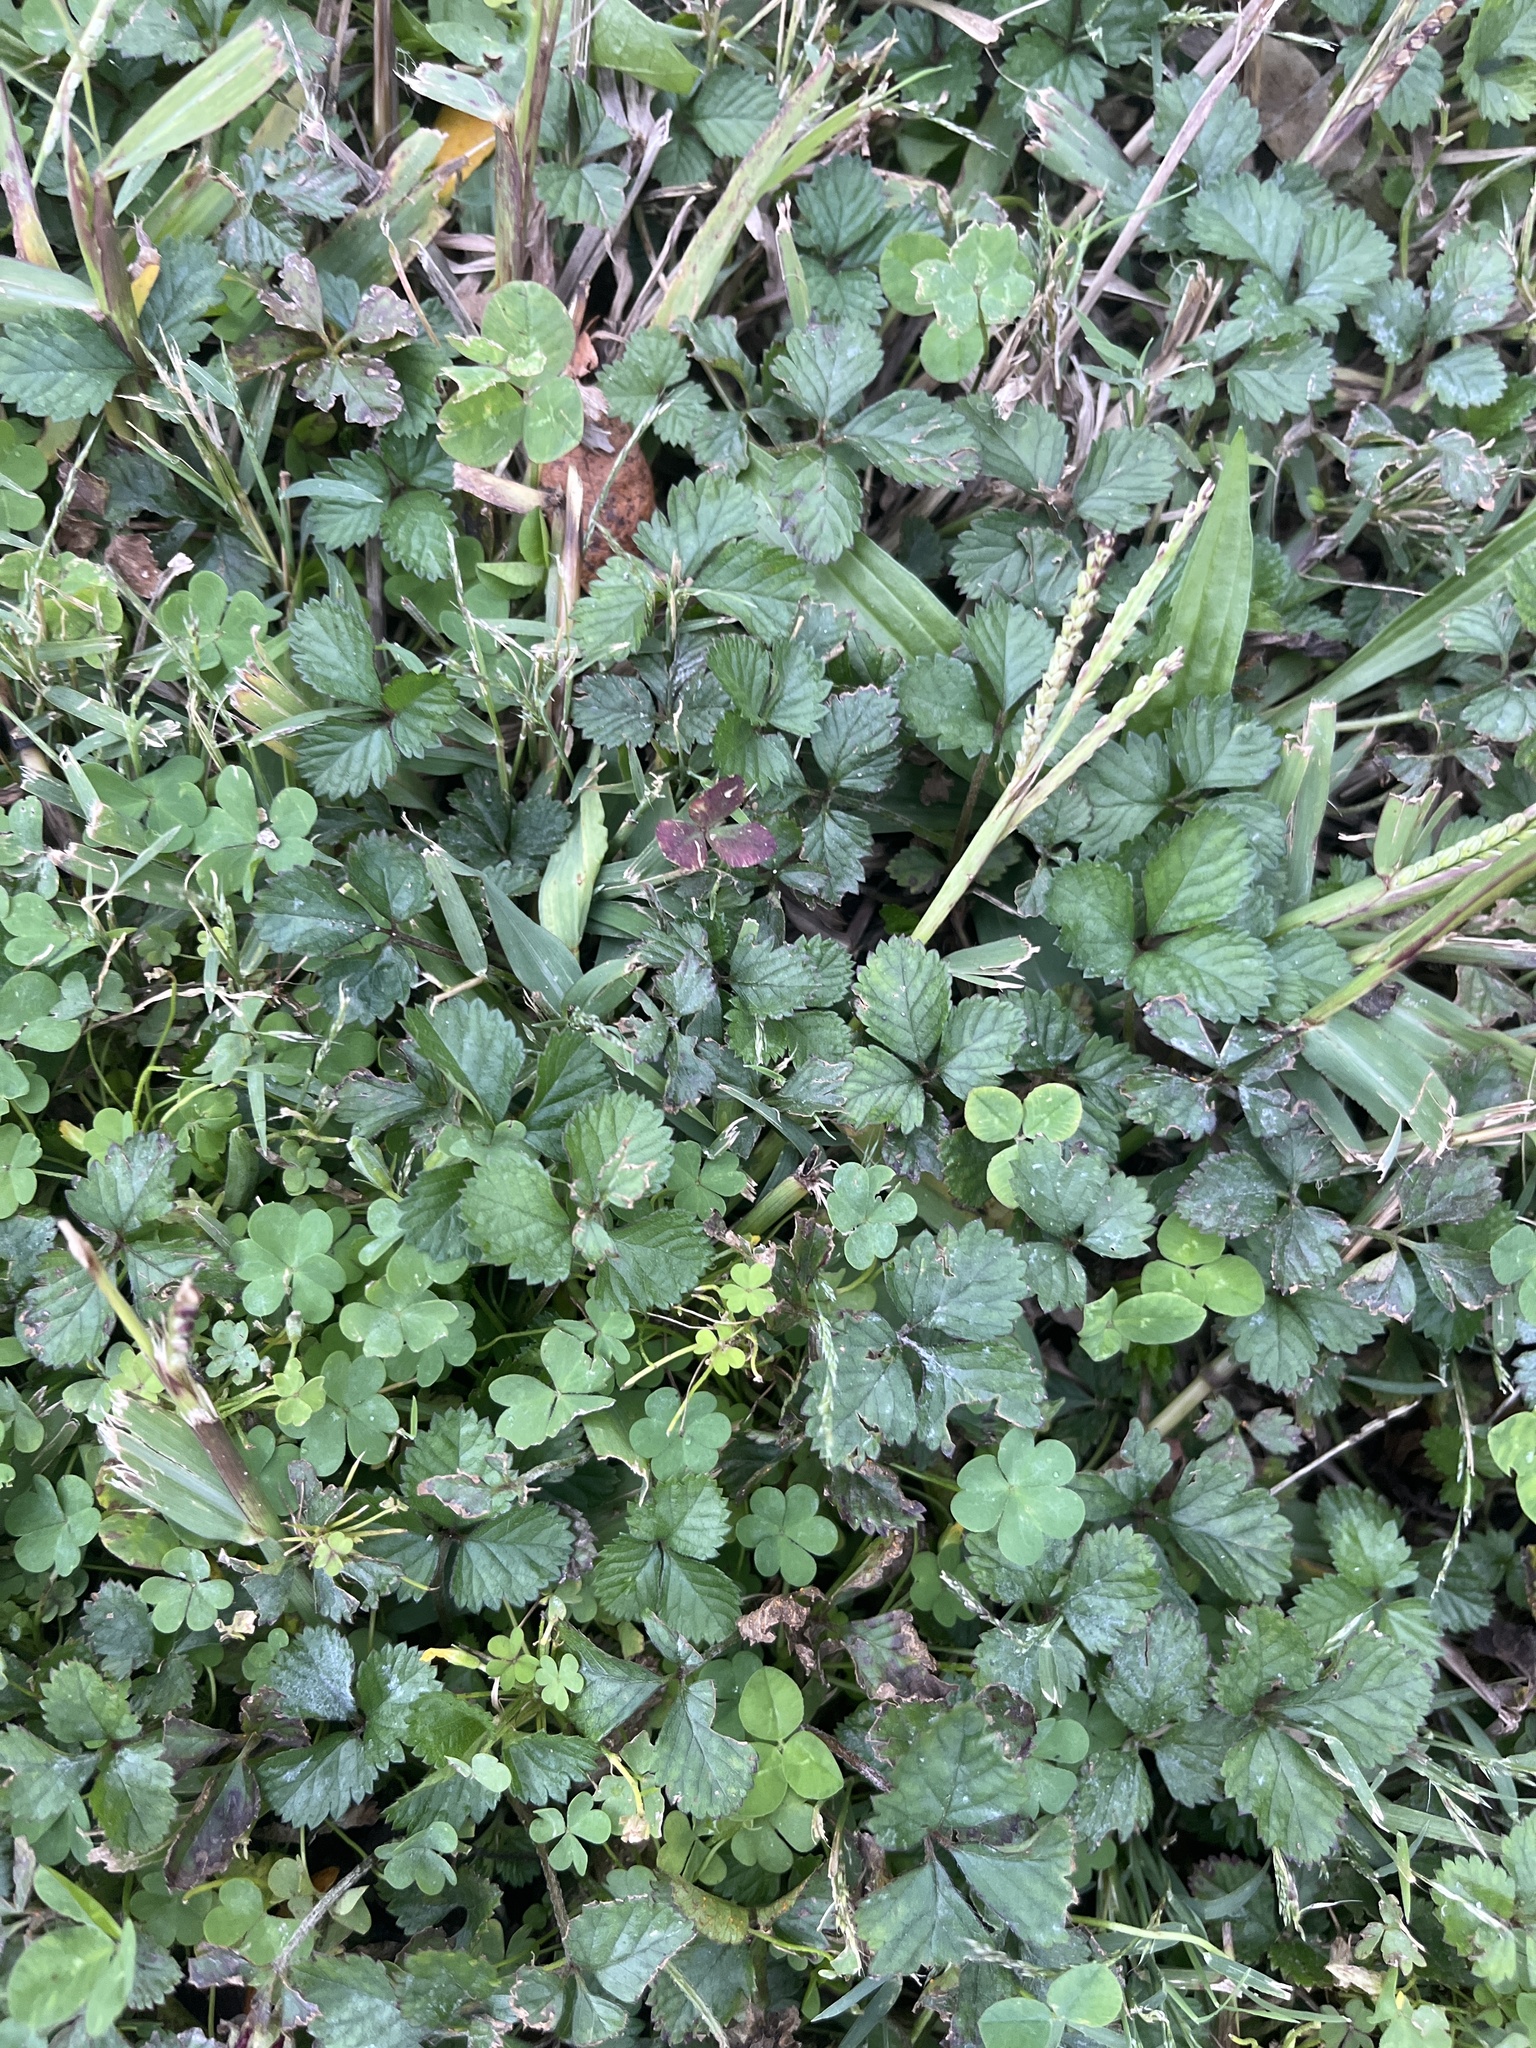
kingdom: Plantae
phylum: Tracheophyta
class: Magnoliopsida
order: Rosales
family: Rosaceae
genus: Potentilla
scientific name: Potentilla indica
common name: Yellow-flowered strawberry
